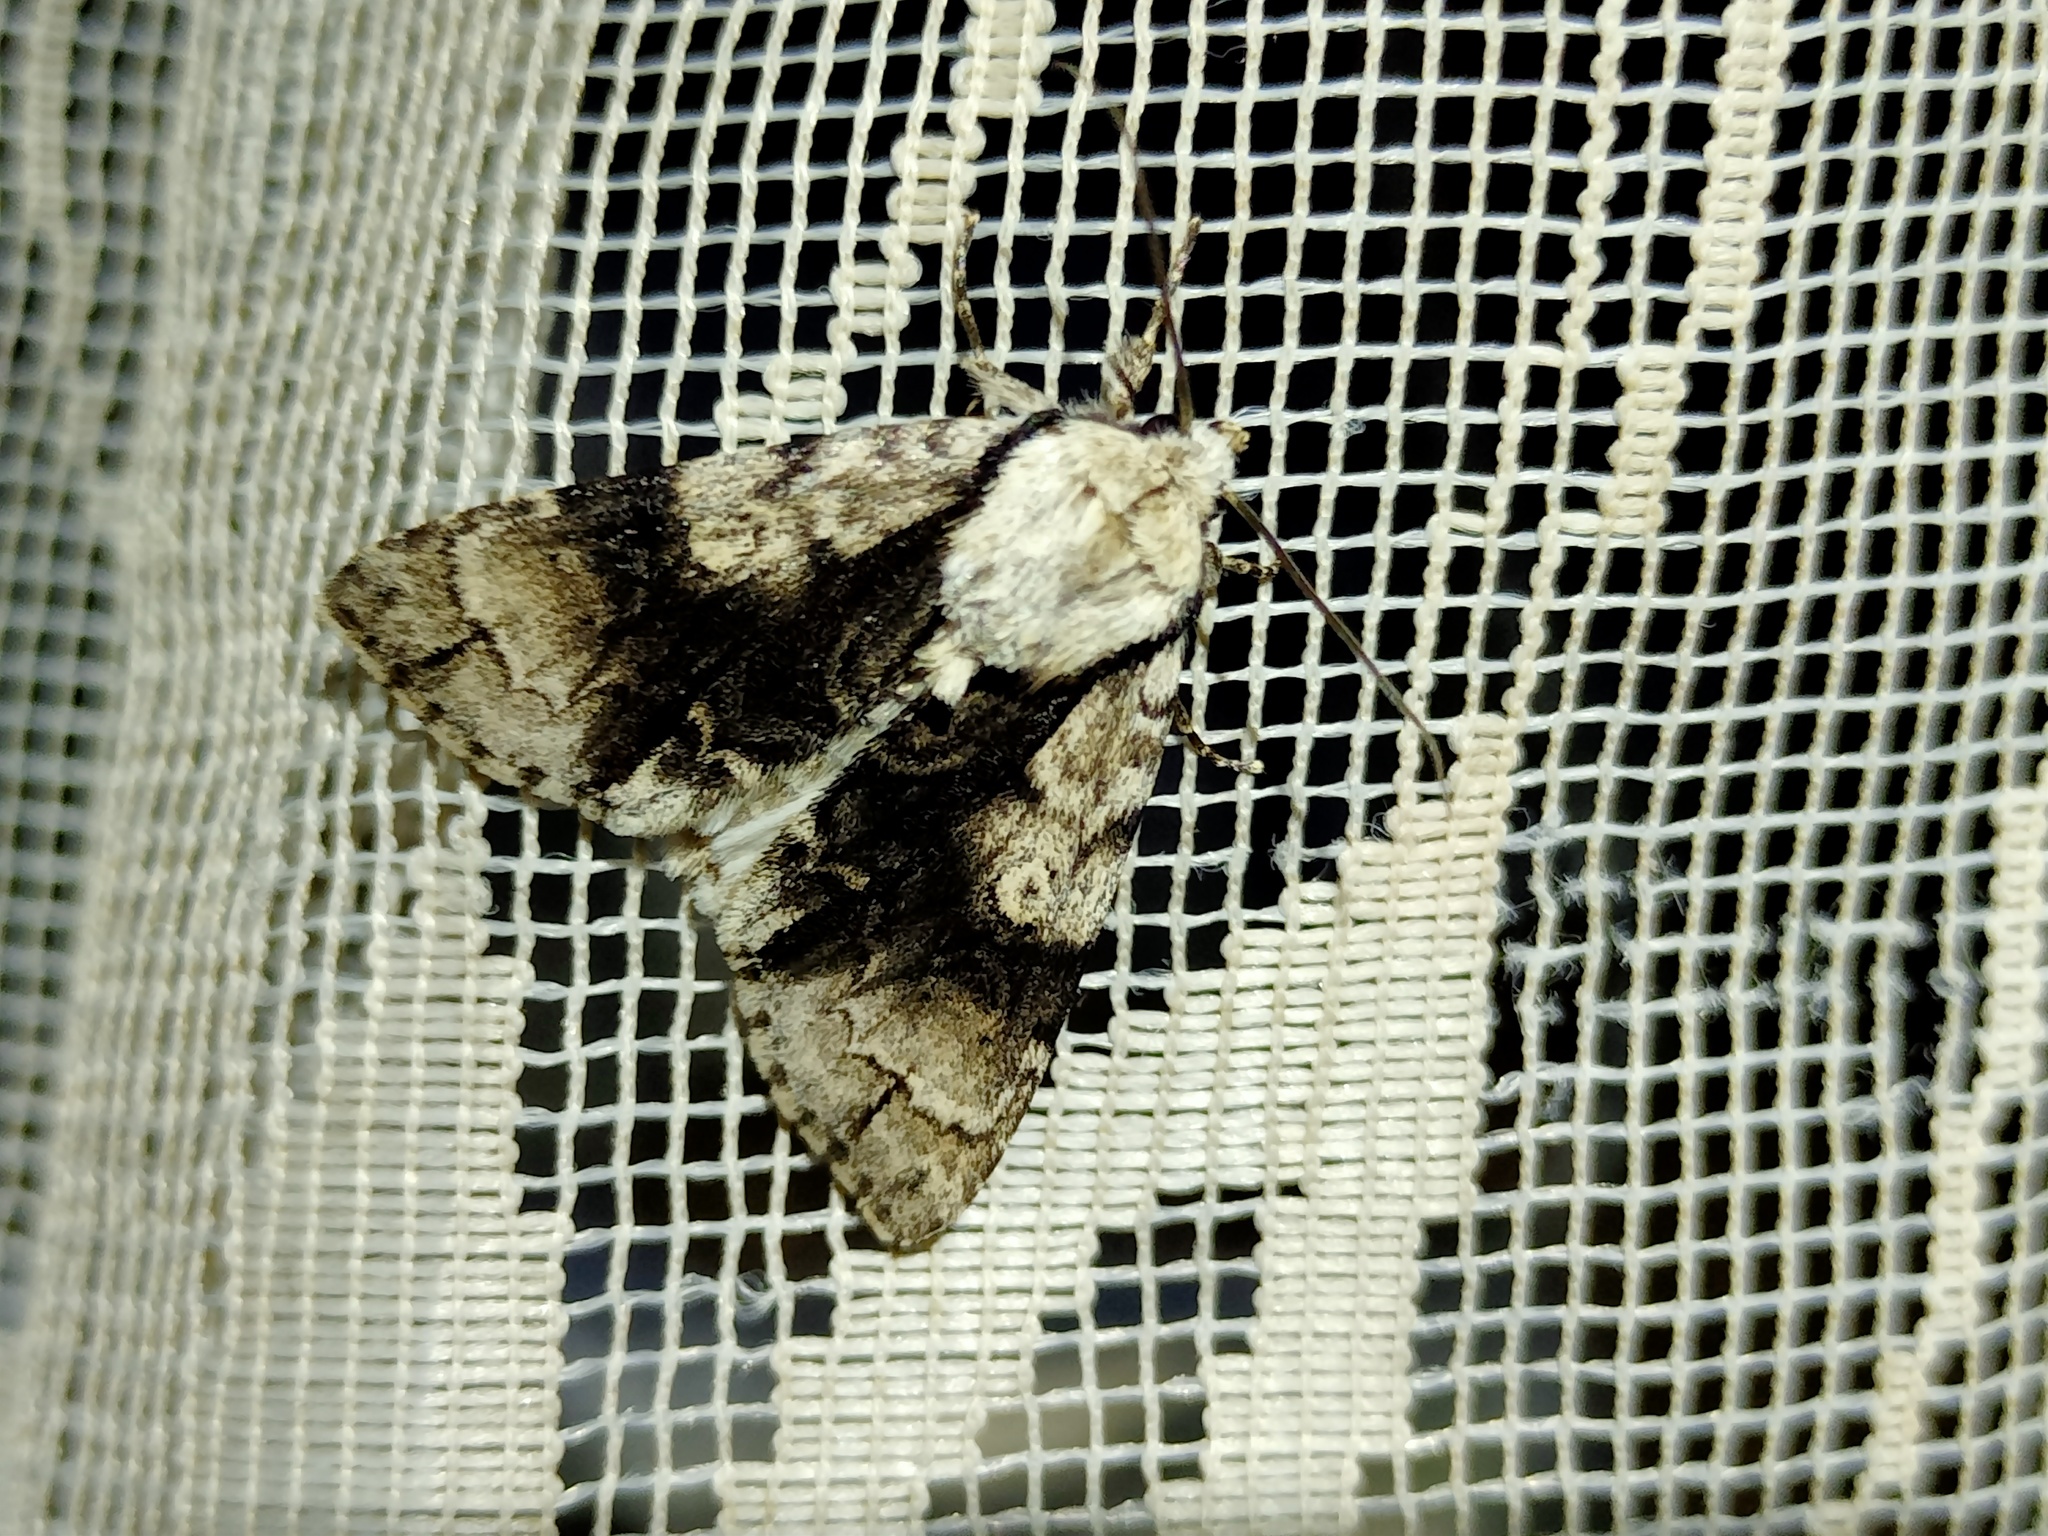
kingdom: Animalia
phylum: Arthropoda
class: Insecta
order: Lepidoptera
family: Noctuidae
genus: Acronicta
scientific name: Acronicta alni
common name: Alder moth
